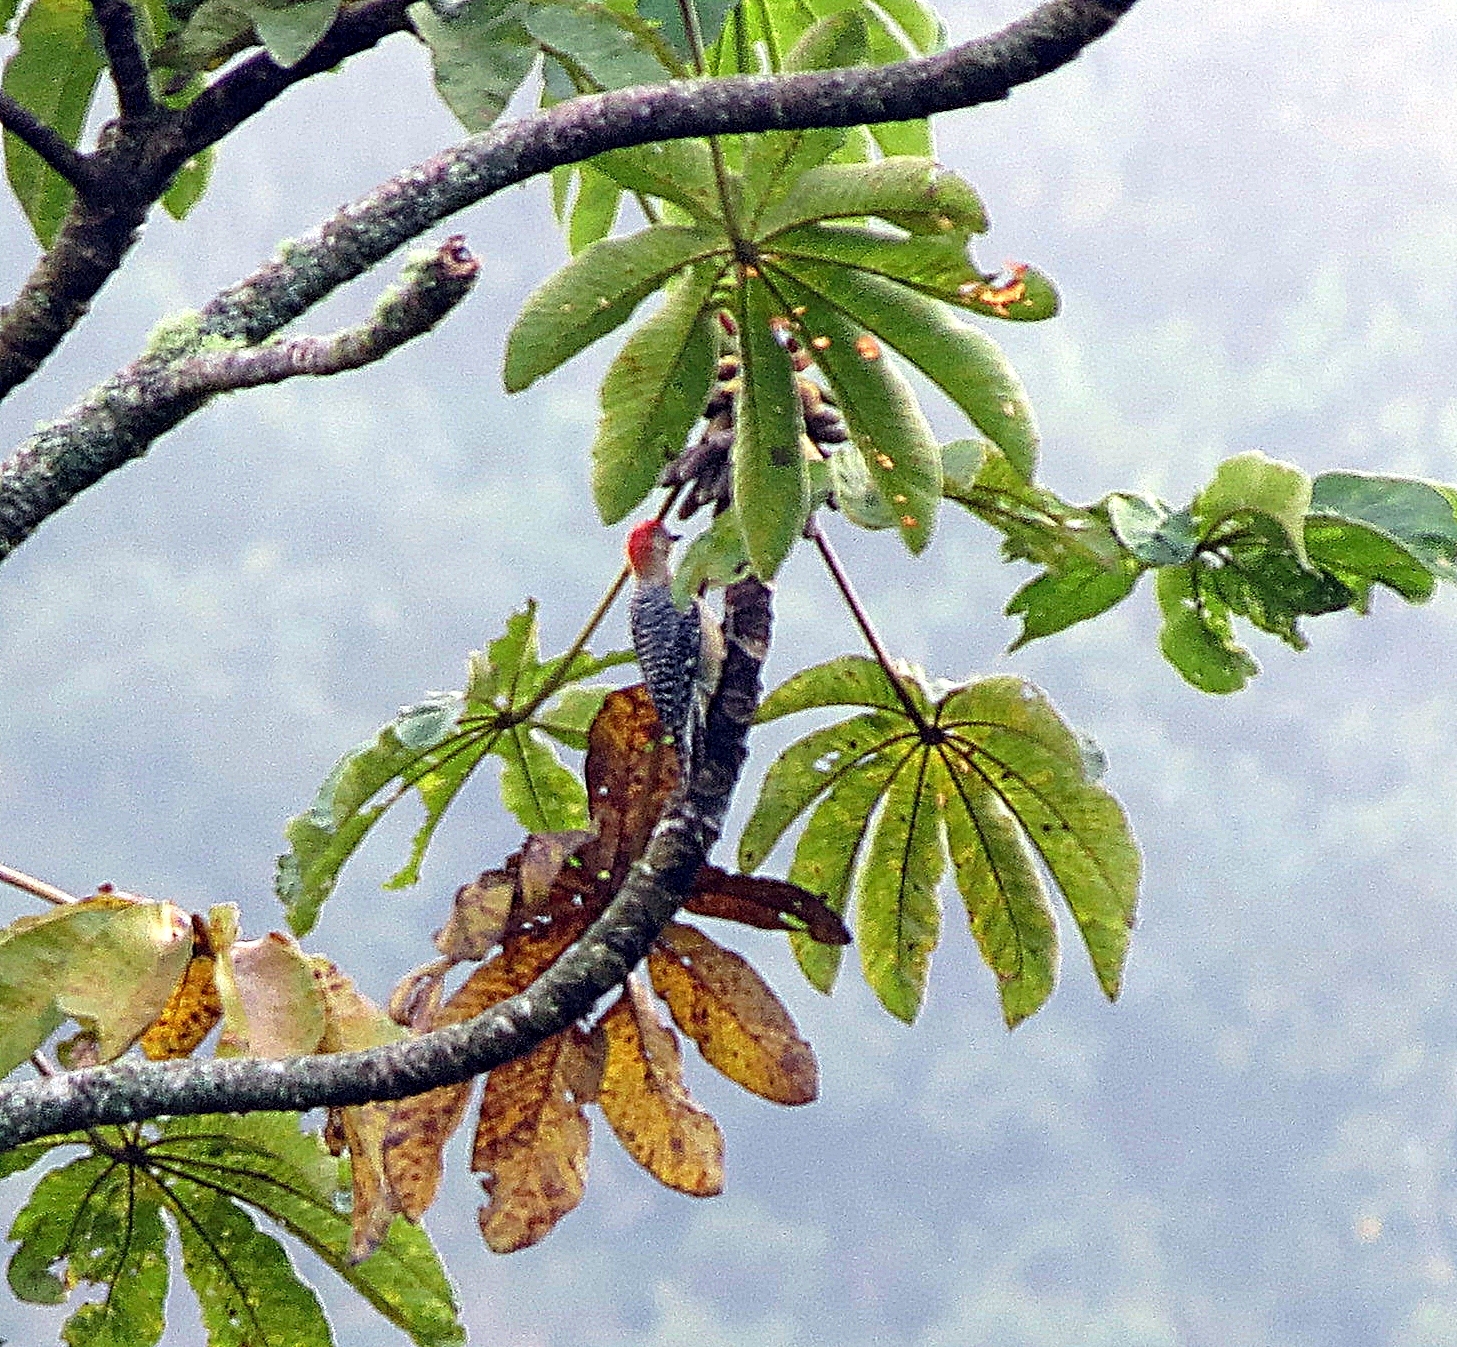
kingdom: Animalia
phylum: Chordata
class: Aves
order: Piciformes
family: Picidae
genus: Melanerpes
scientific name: Melanerpes rubricapillus
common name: Red-crowned woodpecker
